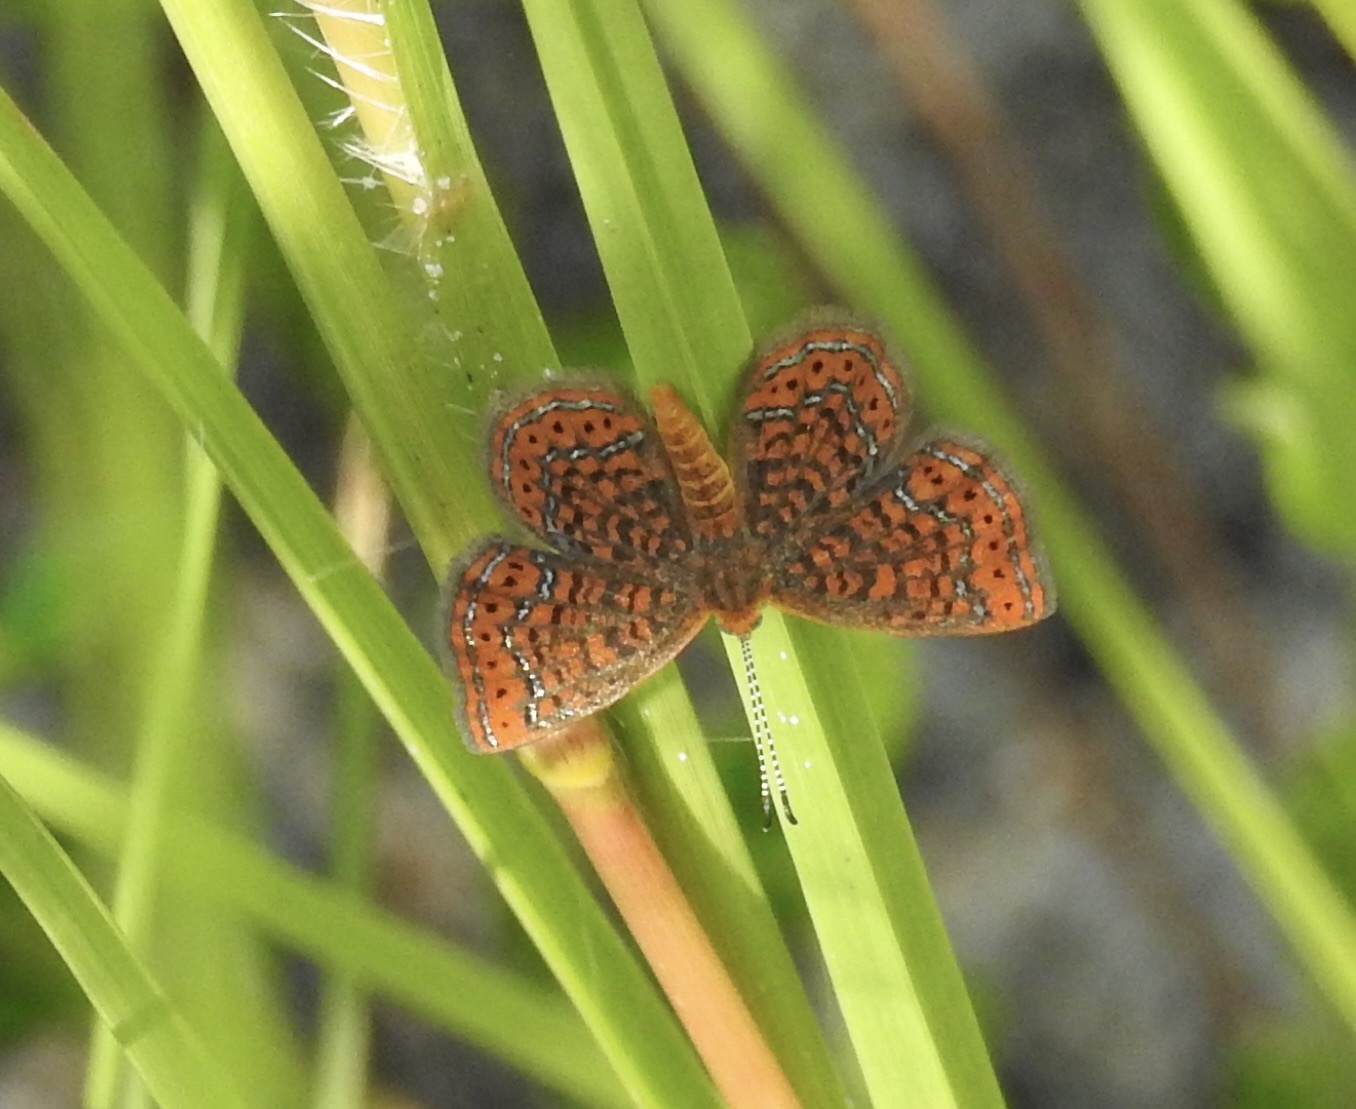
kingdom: Animalia
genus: Calephelis
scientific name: Calephelis virginiensis
